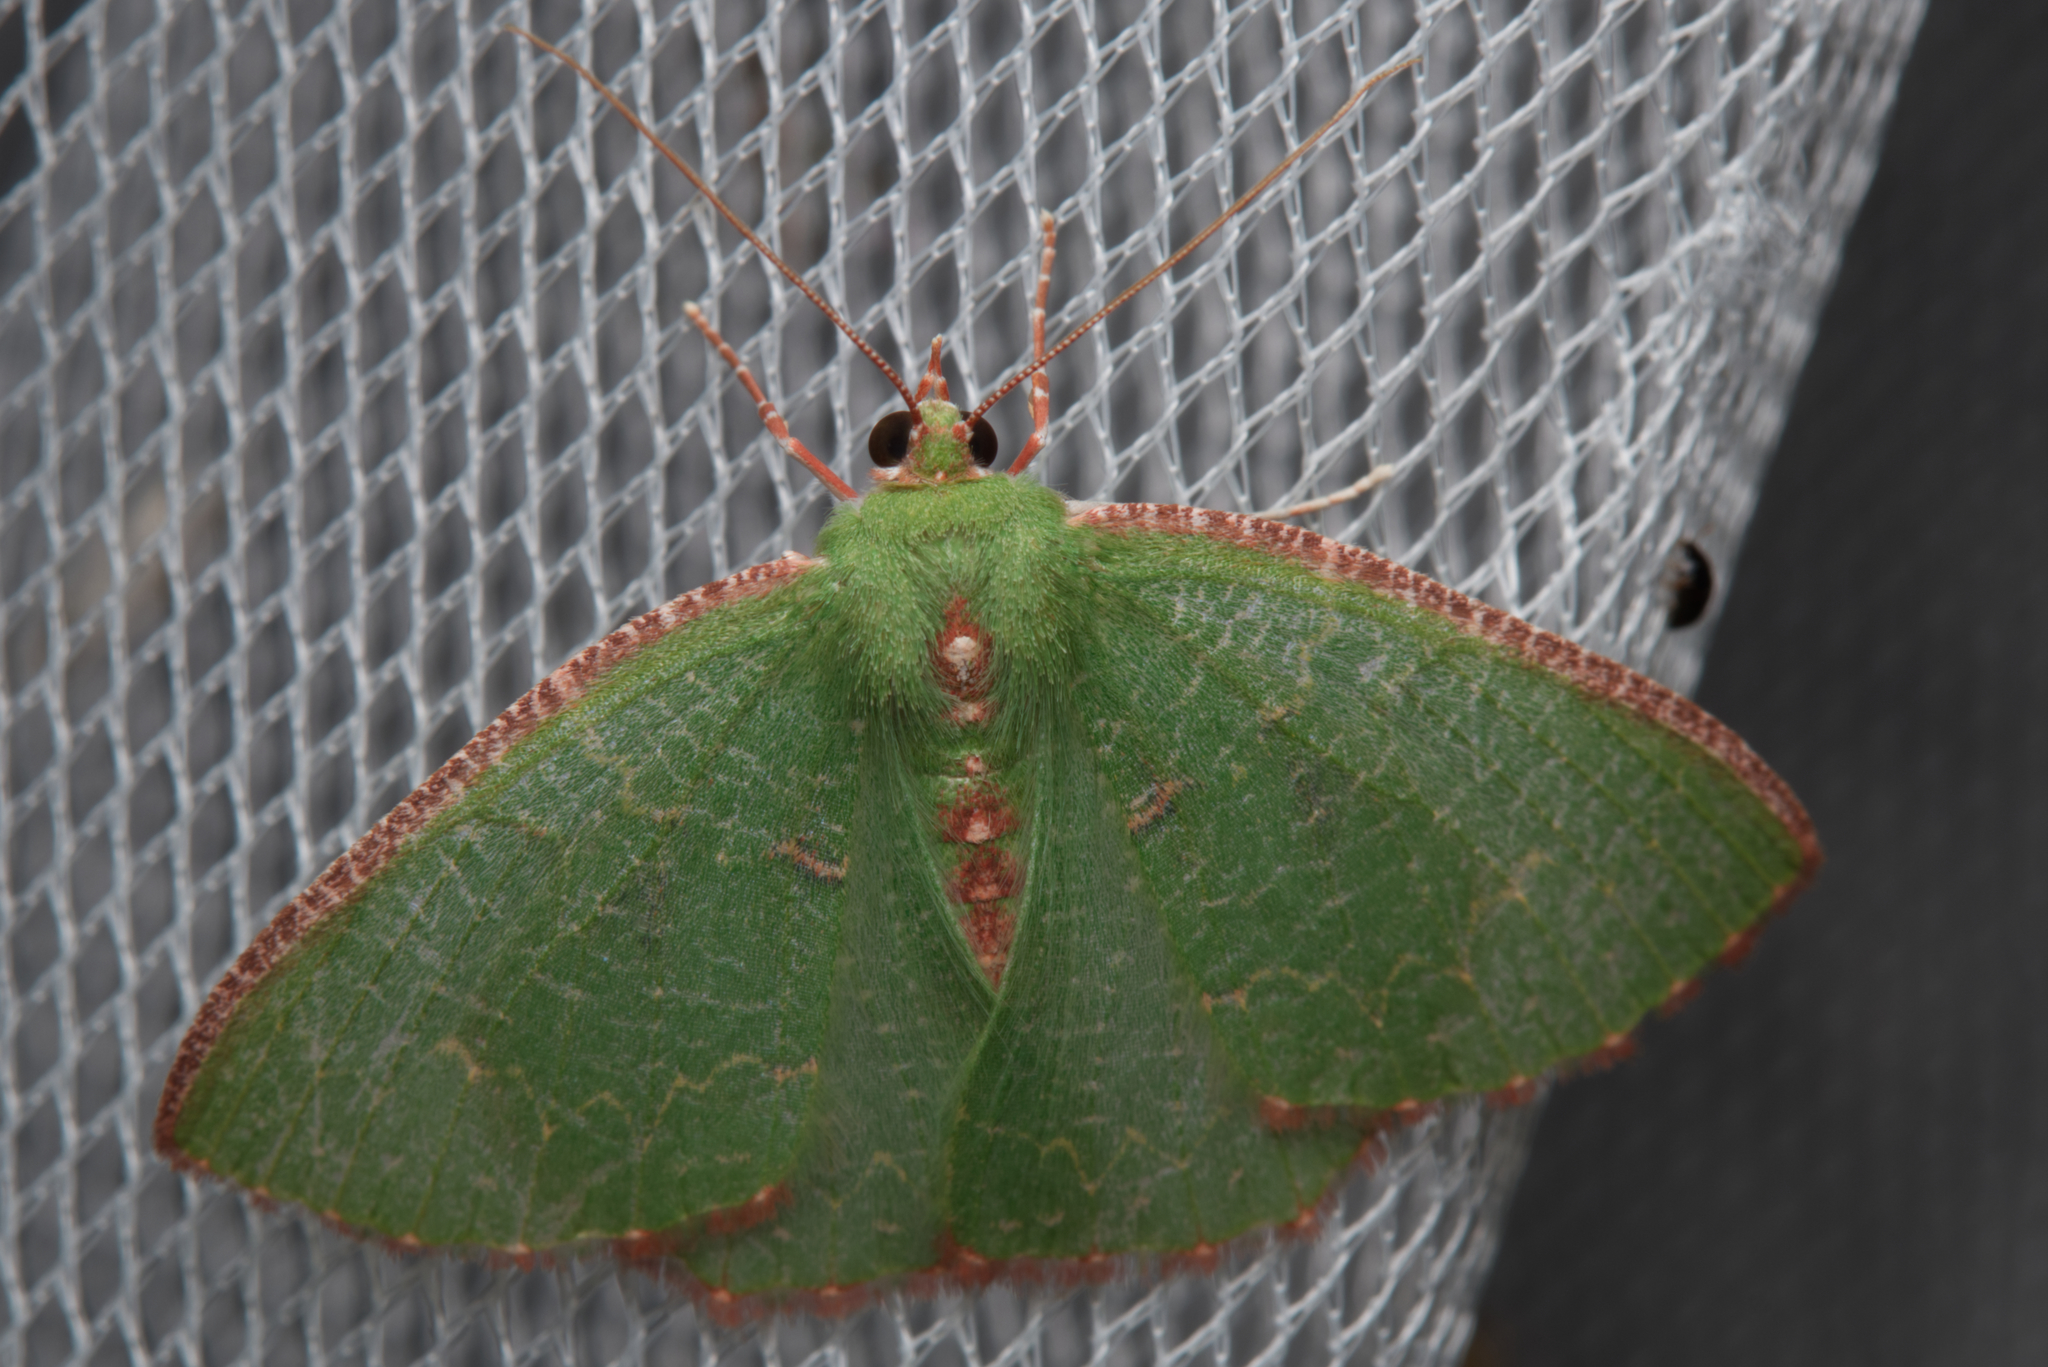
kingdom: Animalia
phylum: Arthropoda
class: Insecta
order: Lepidoptera
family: Geometridae
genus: Eucyclodes
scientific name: Eucyclodes metaspila
